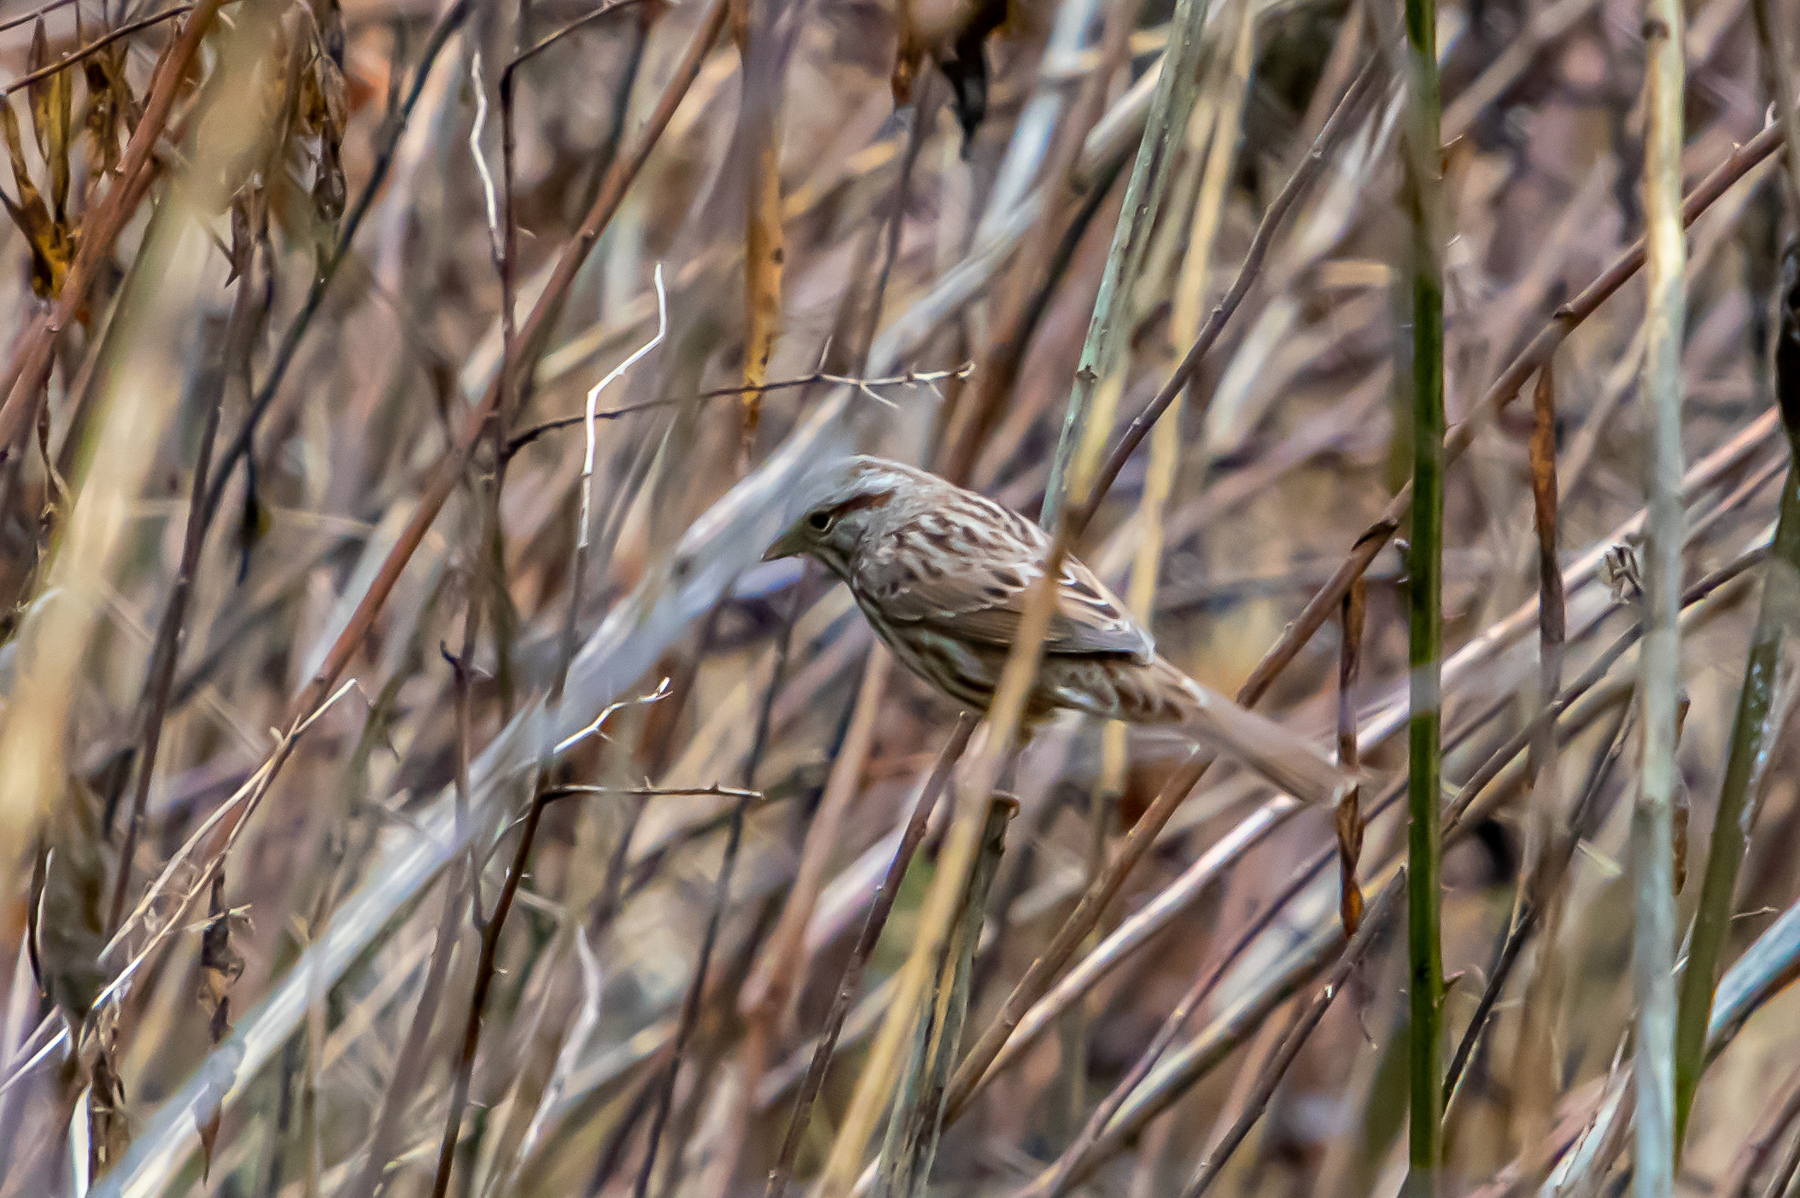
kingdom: Animalia
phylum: Chordata
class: Aves
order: Passeriformes
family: Passerellidae
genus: Melospiza
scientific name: Melospiza melodia
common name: Song sparrow
